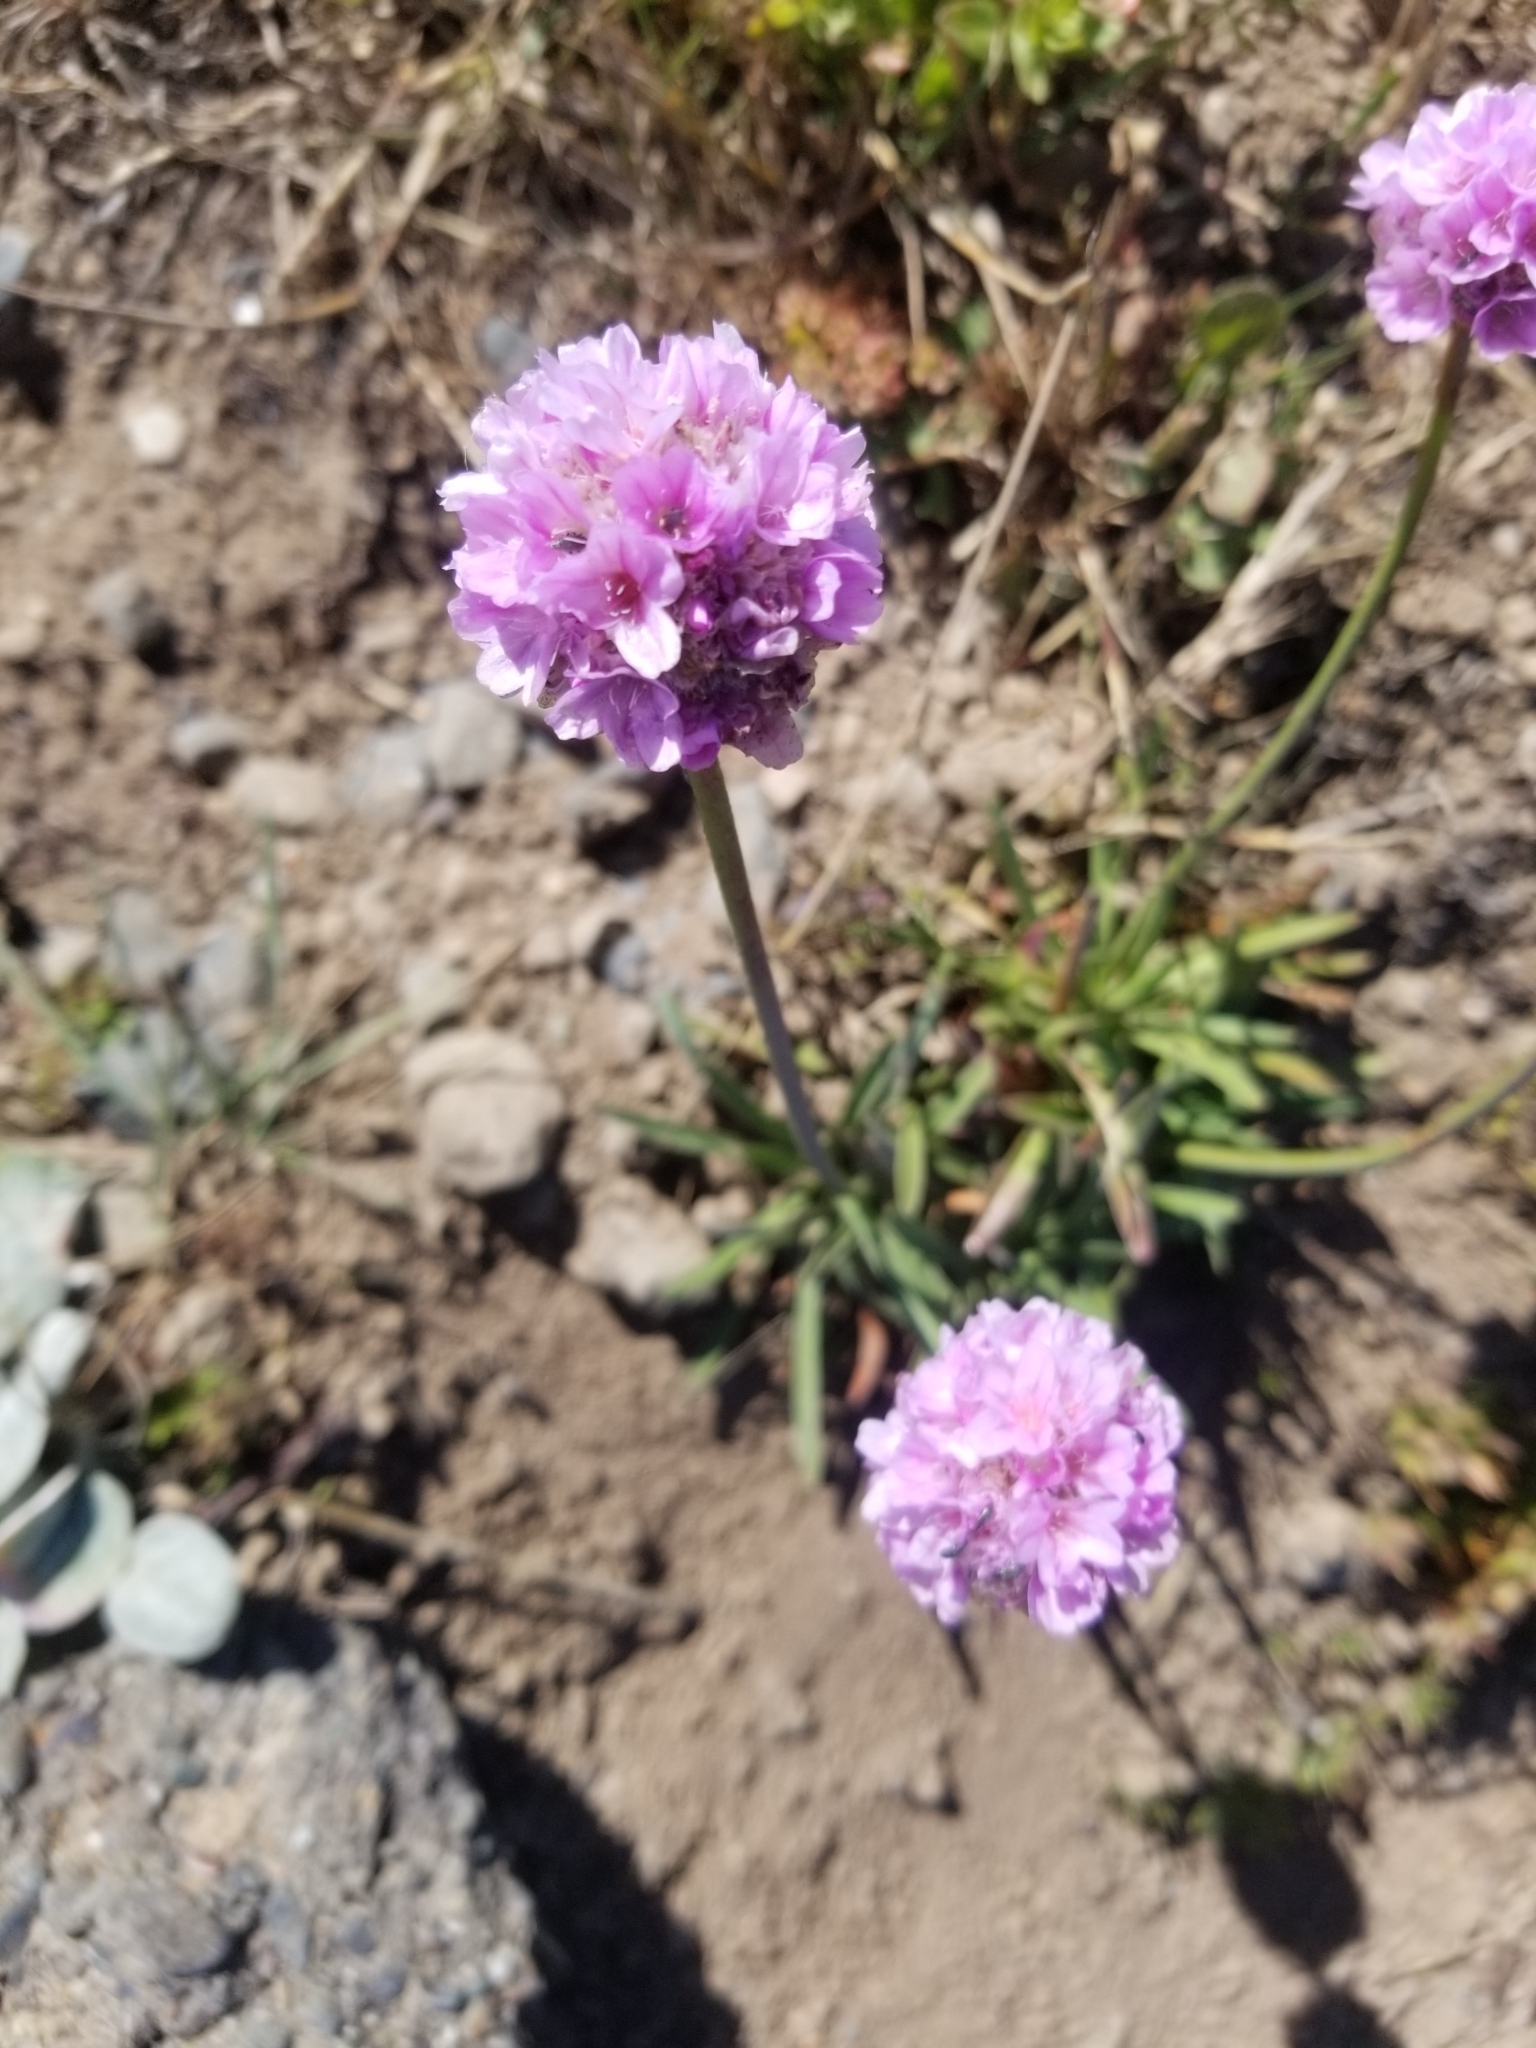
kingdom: Plantae
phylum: Tracheophyta
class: Magnoliopsida
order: Caryophyllales
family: Plumbaginaceae
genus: Armeria
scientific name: Armeria maritima
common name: Thrift
